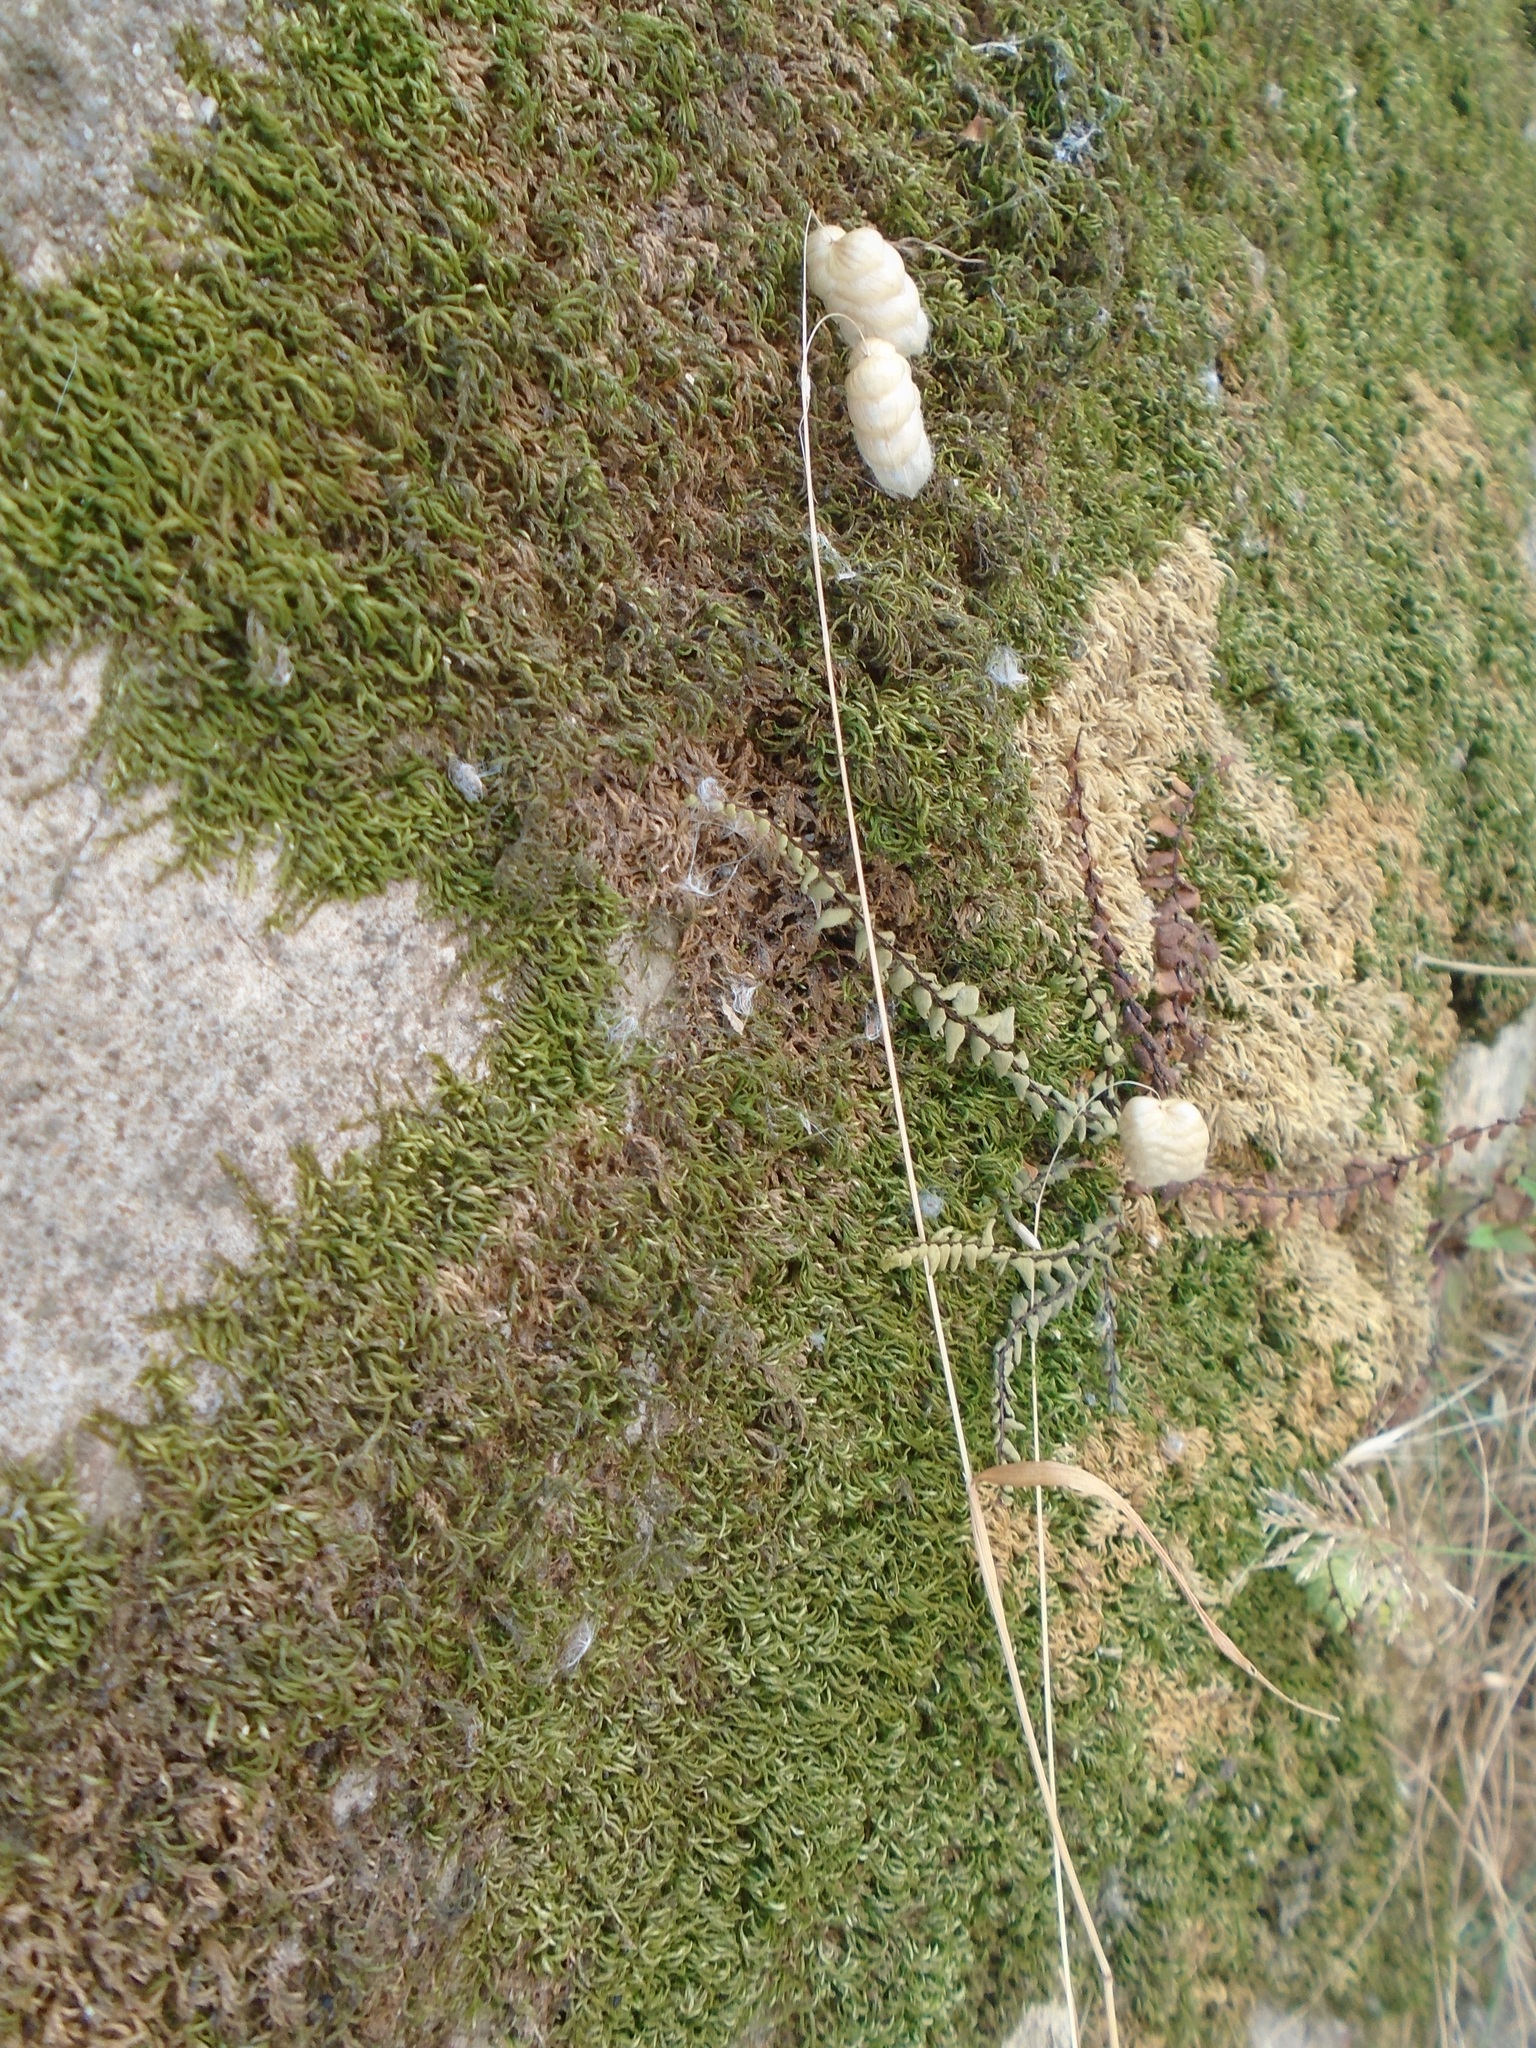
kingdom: Plantae
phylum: Tracheophyta
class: Liliopsida
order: Poales
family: Poaceae
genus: Briza
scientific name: Briza maxima
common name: Big quakinggrass
